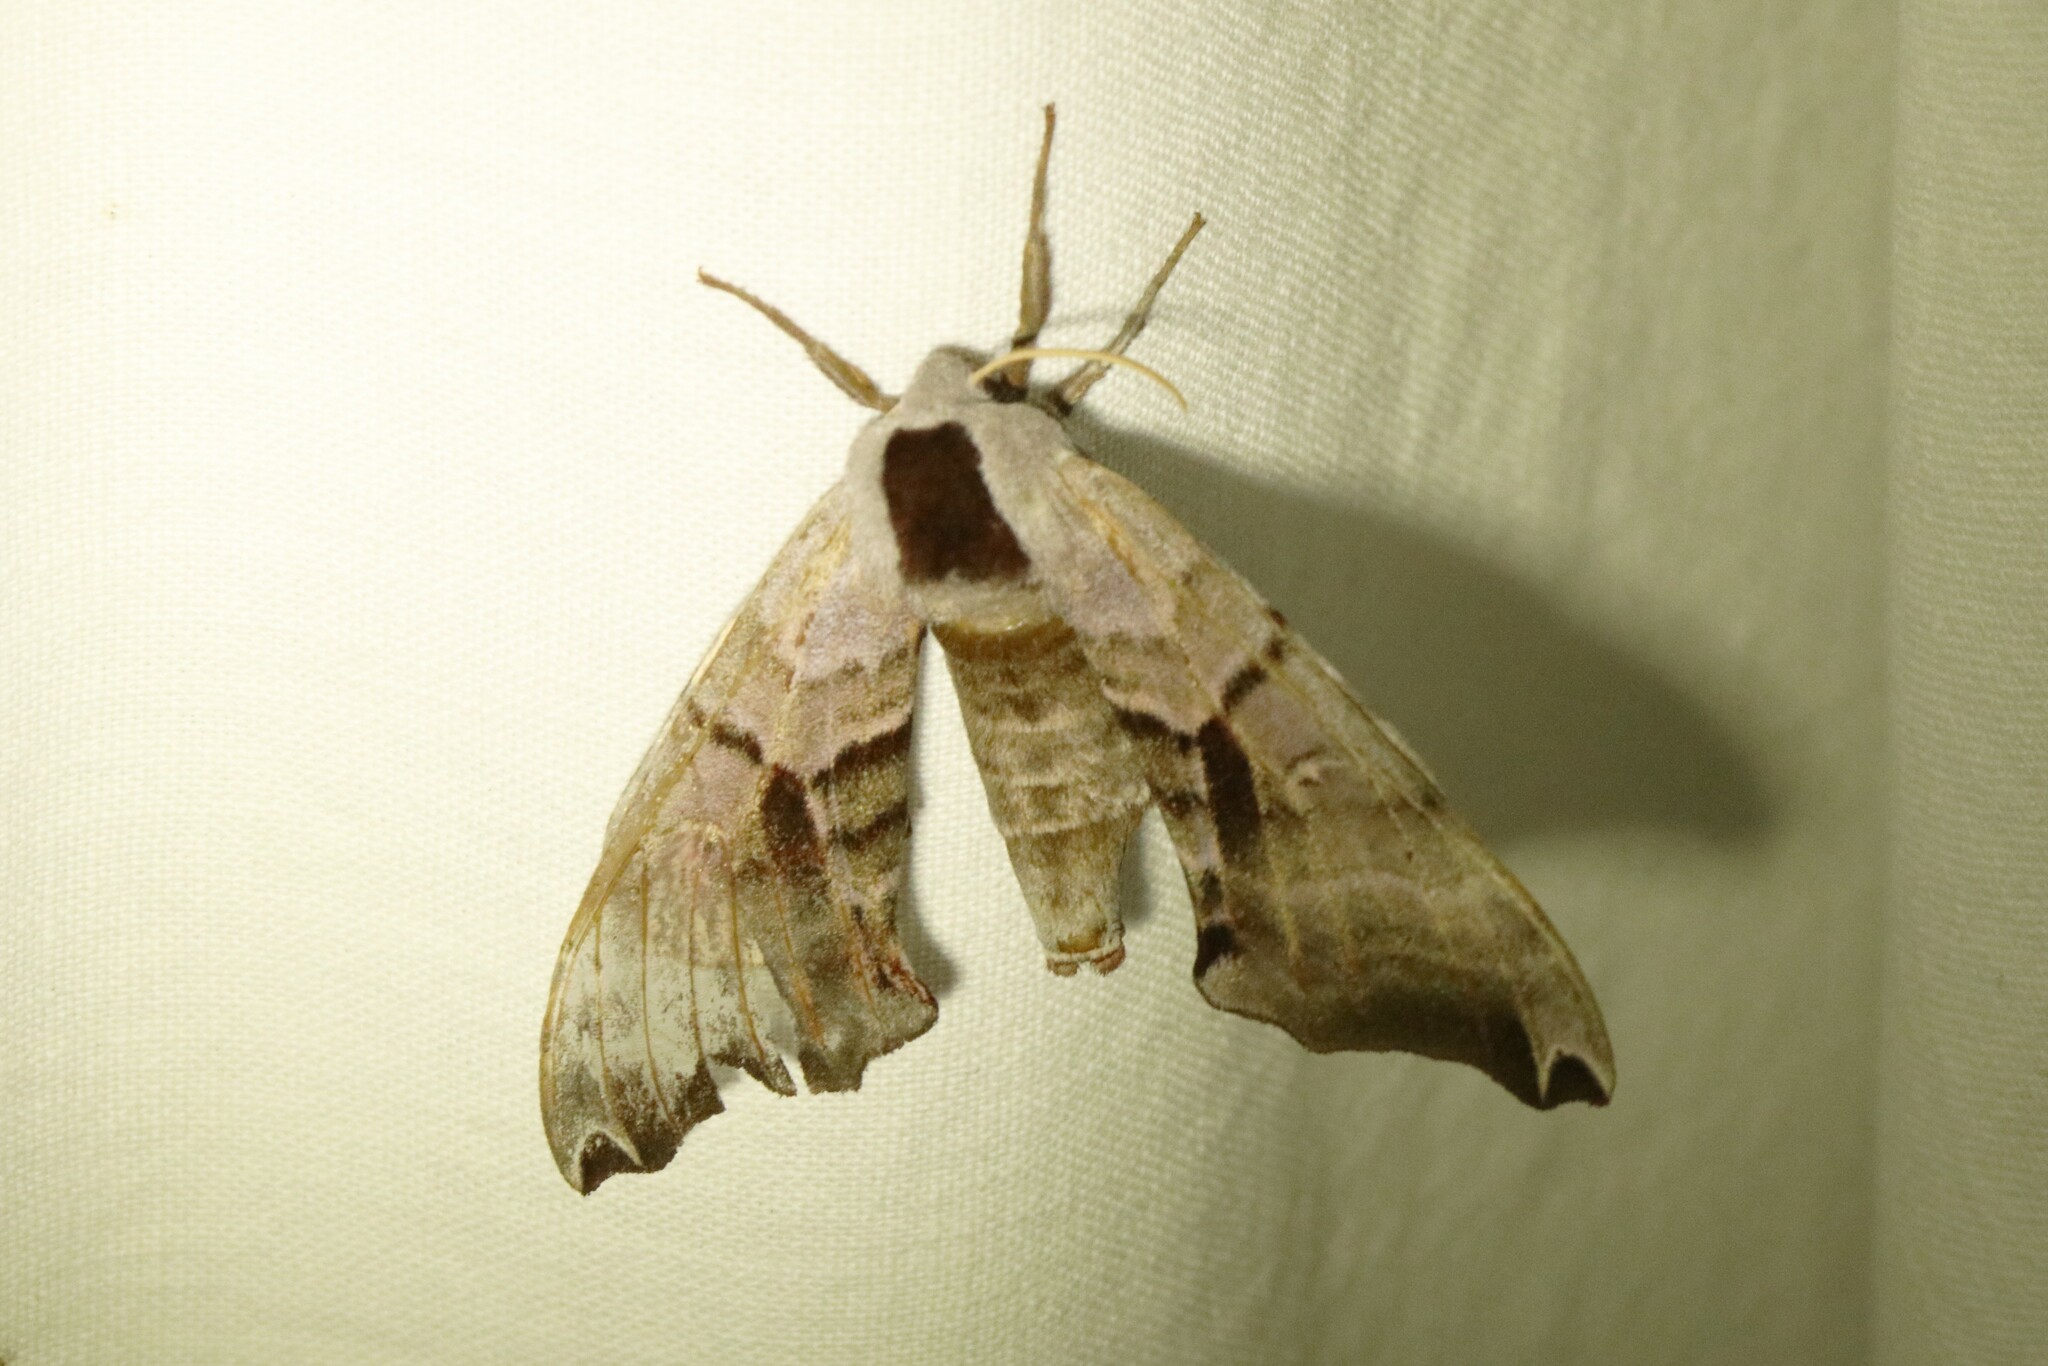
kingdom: Animalia
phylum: Arthropoda
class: Insecta
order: Lepidoptera
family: Sphingidae
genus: Smerinthus
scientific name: Smerinthus jamaicensis
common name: Twin spotted sphinx
